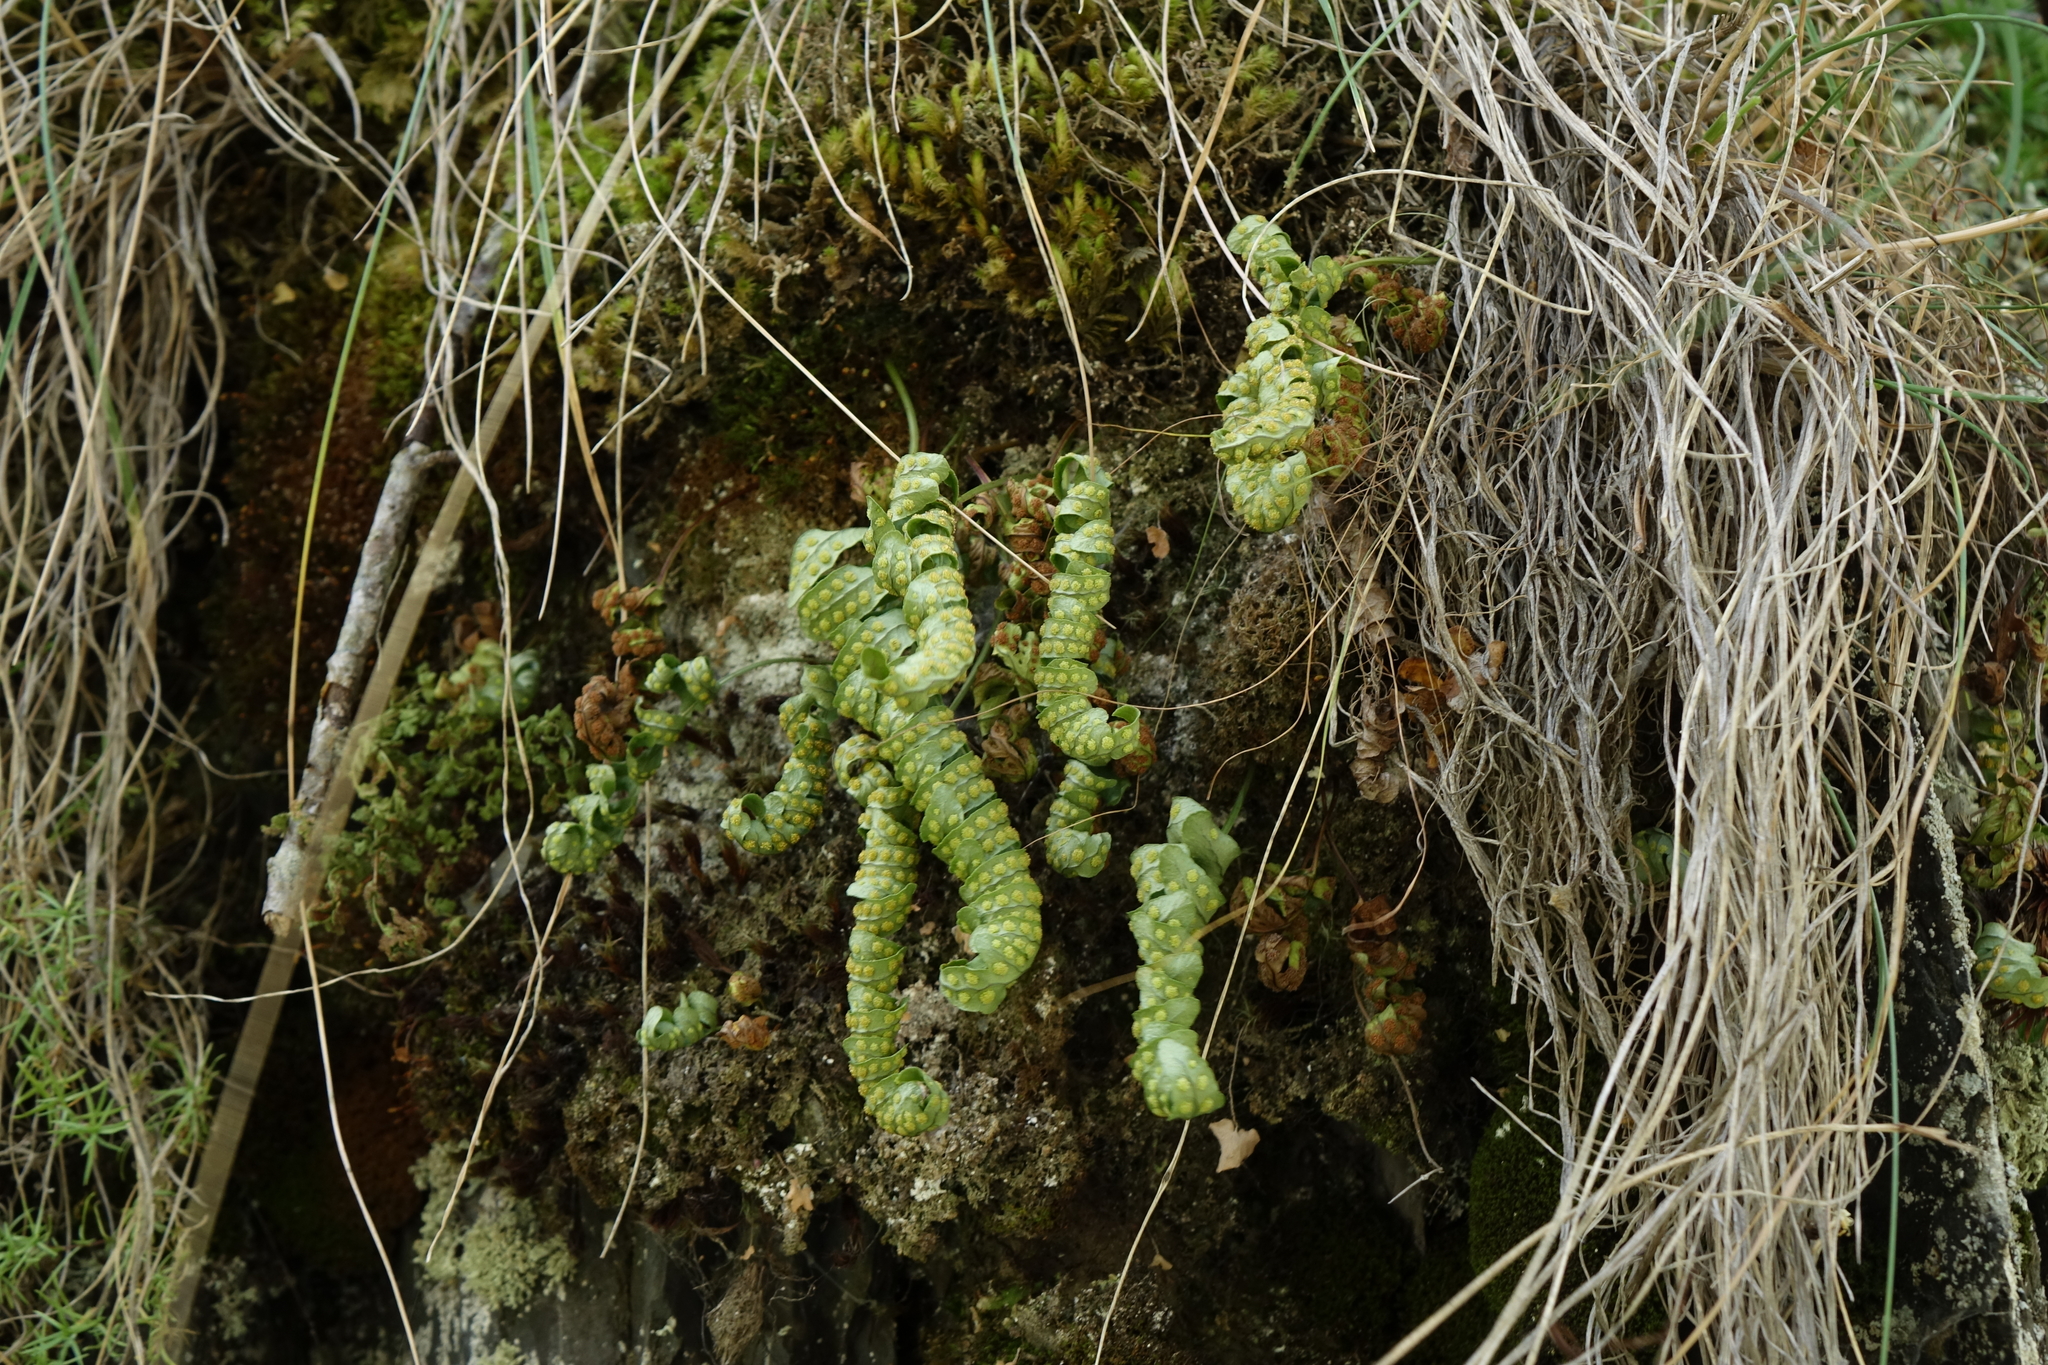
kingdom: Plantae
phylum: Tracheophyta
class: Polypodiopsida
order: Polypodiales
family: Polypodiaceae
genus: Polypodium
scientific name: Polypodium vulgare
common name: Common polypody
